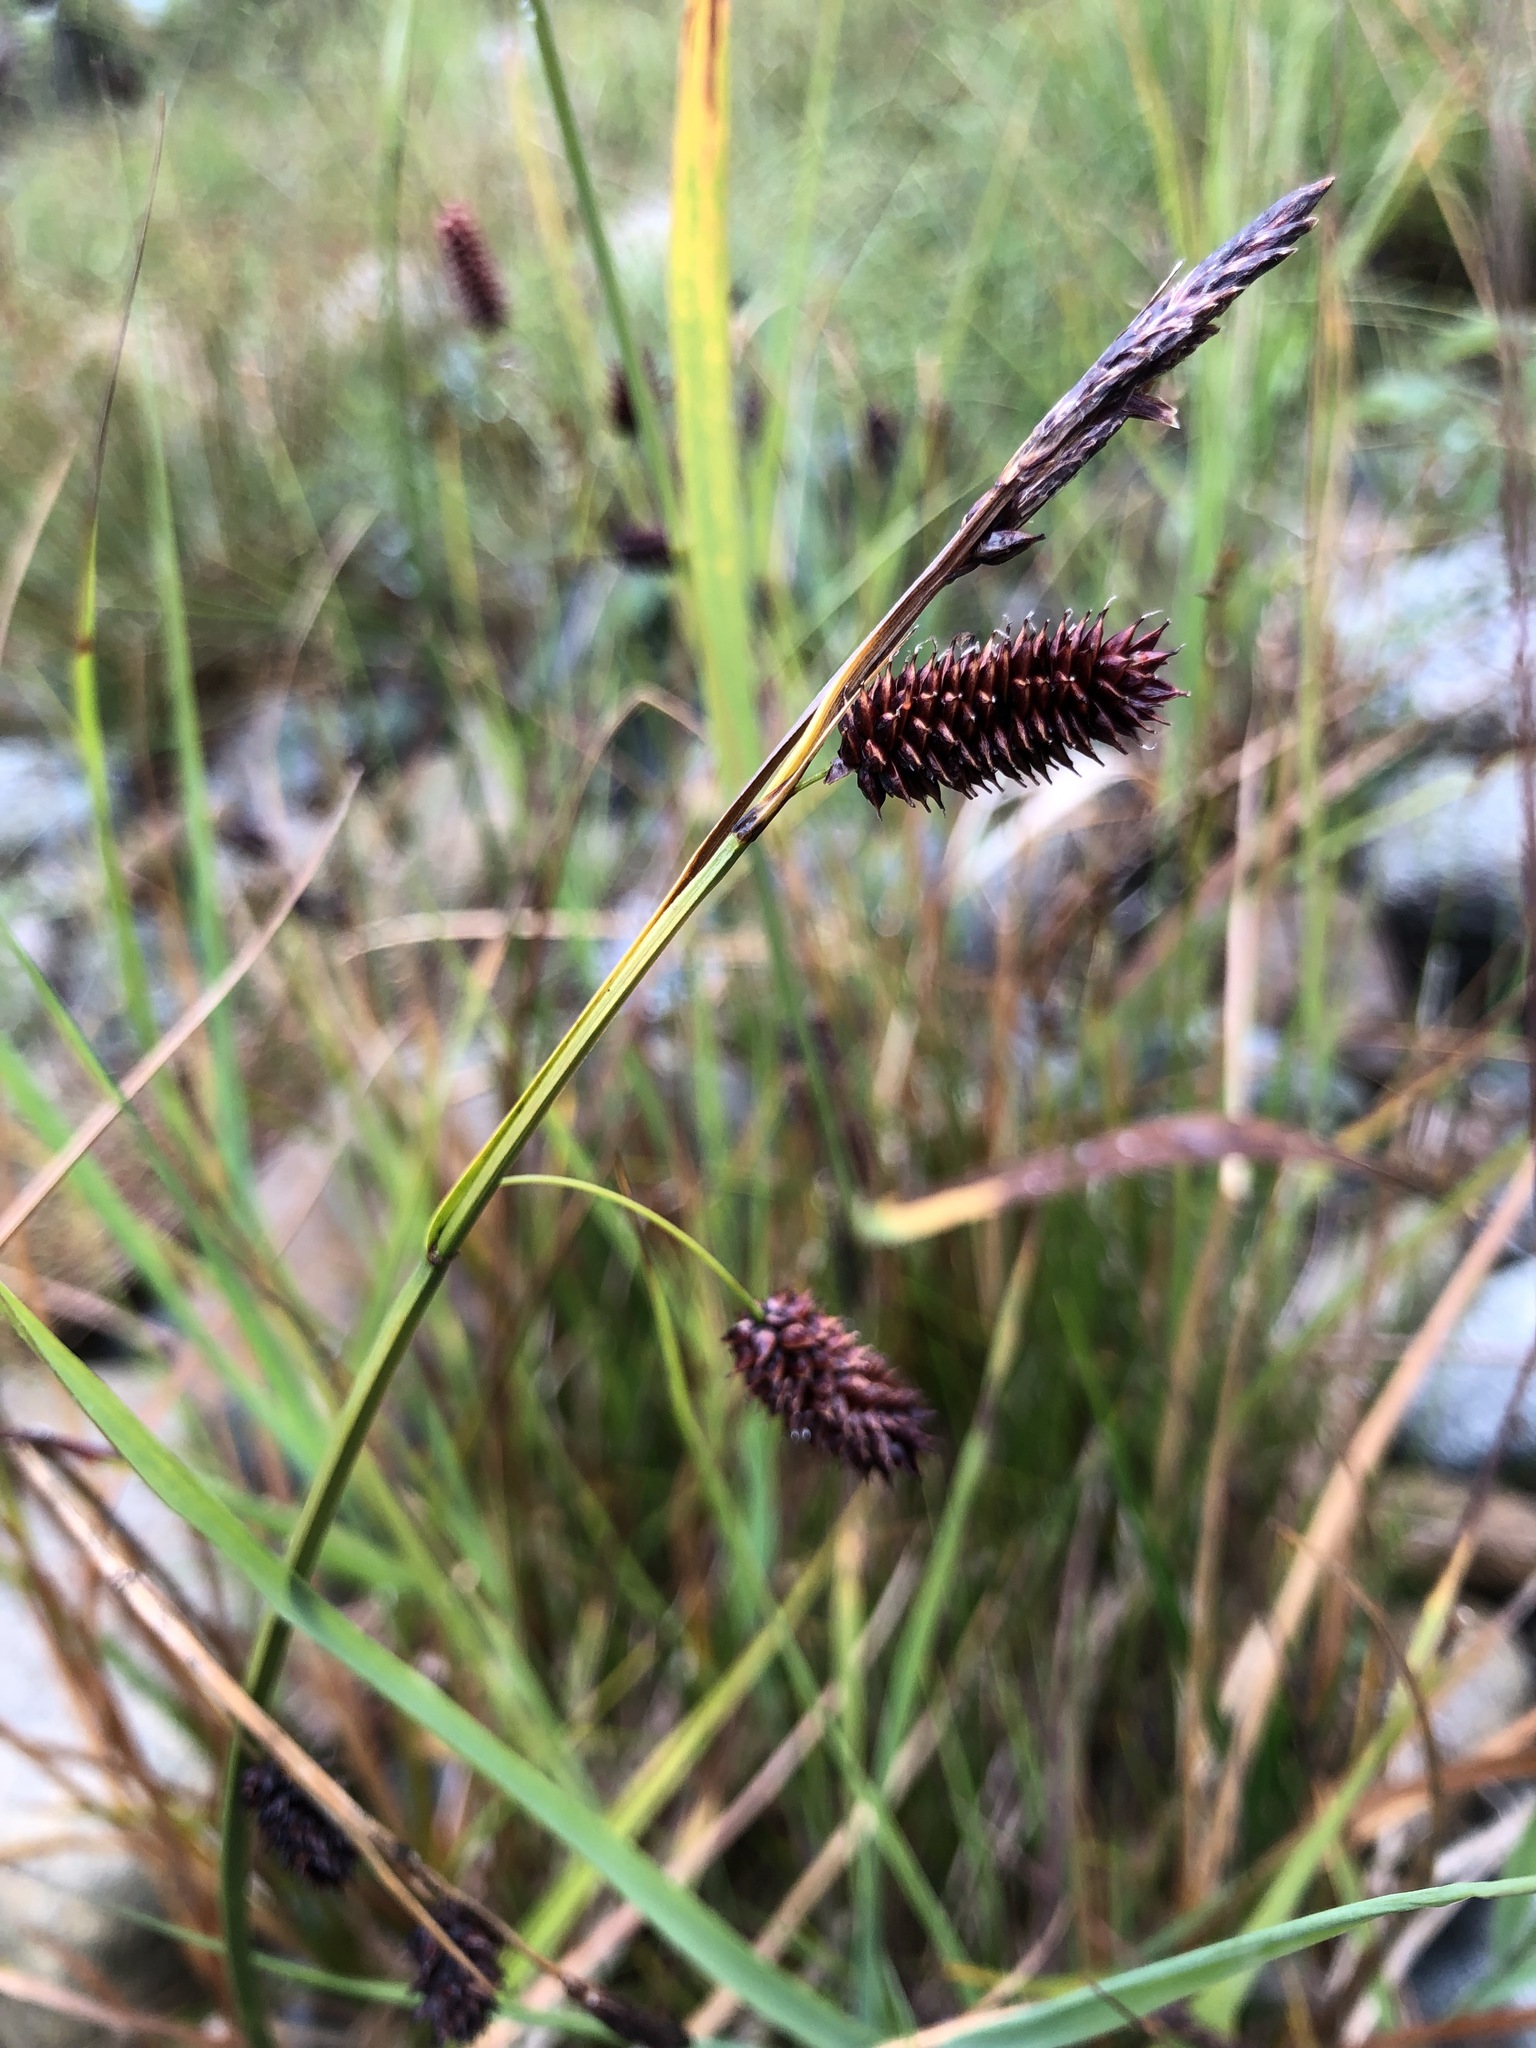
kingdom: Plantae
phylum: Tracheophyta
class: Liliopsida
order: Poales
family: Cyperaceae
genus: Carex
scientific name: Carex saxatilis
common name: Russet sedge
